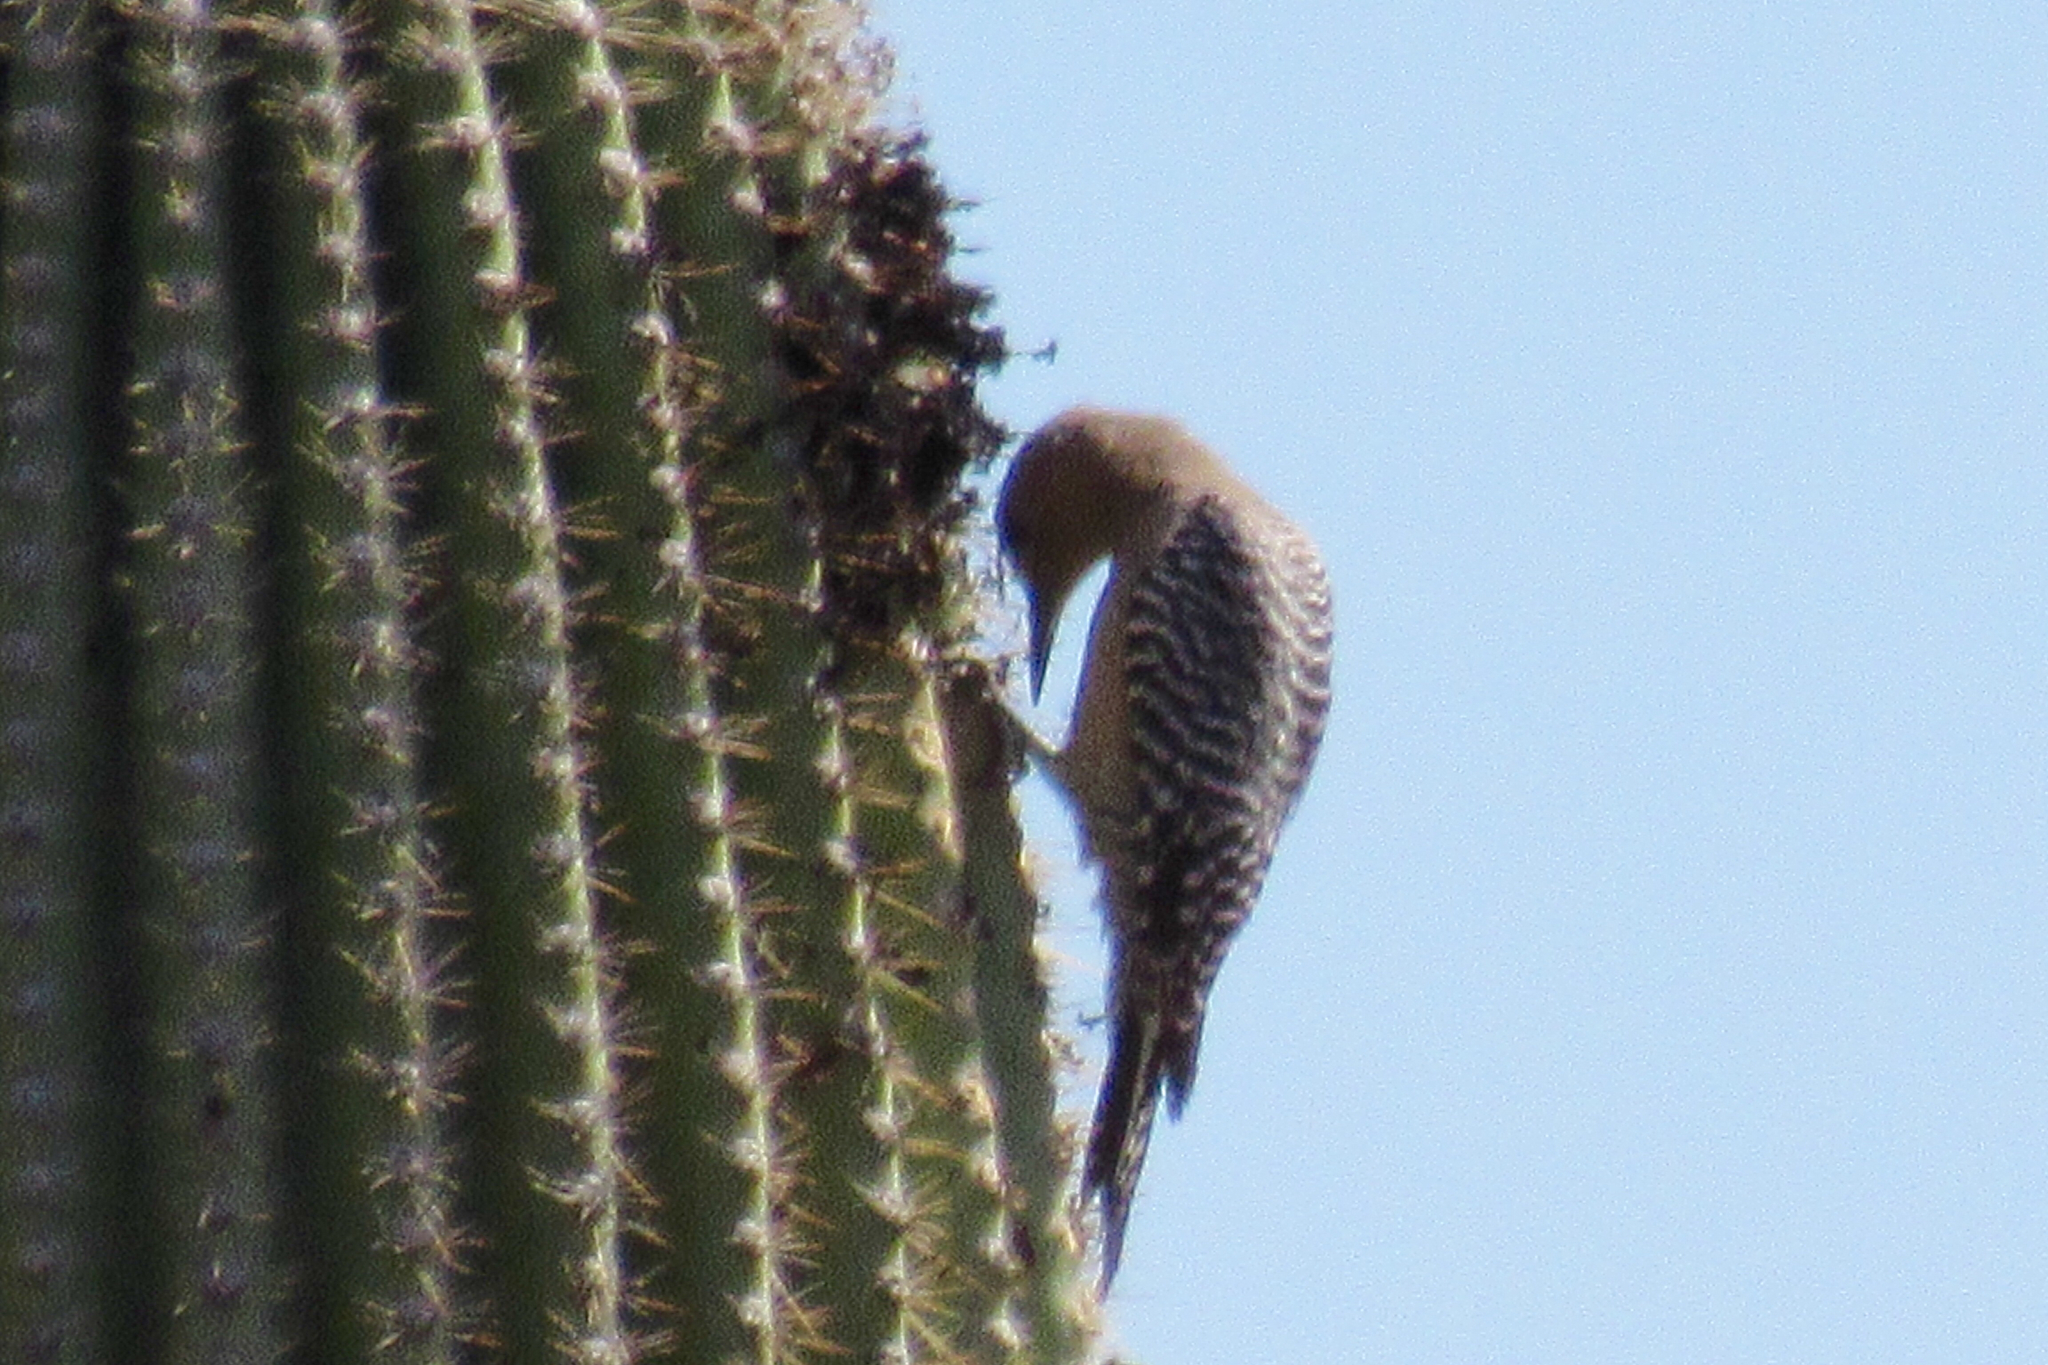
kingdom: Animalia
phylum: Chordata
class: Aves
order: Piciformes
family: Picidae
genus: Melanerpes
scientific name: Melanerpes uropygialis
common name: Gila woodpecker
